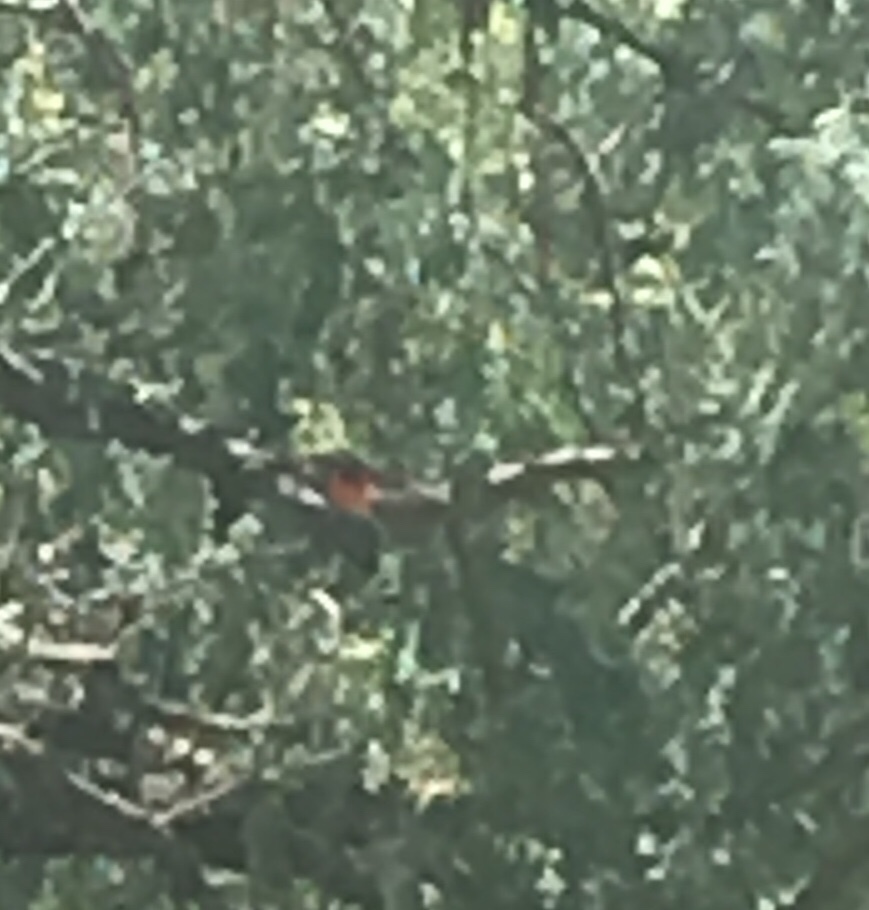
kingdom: Animalia
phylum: Chordata
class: Aves
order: Passeriformes
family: Tyrannidae
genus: Pyrocephalus
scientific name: Pyrocephalus rubinus
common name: Vermilion flycatcher
